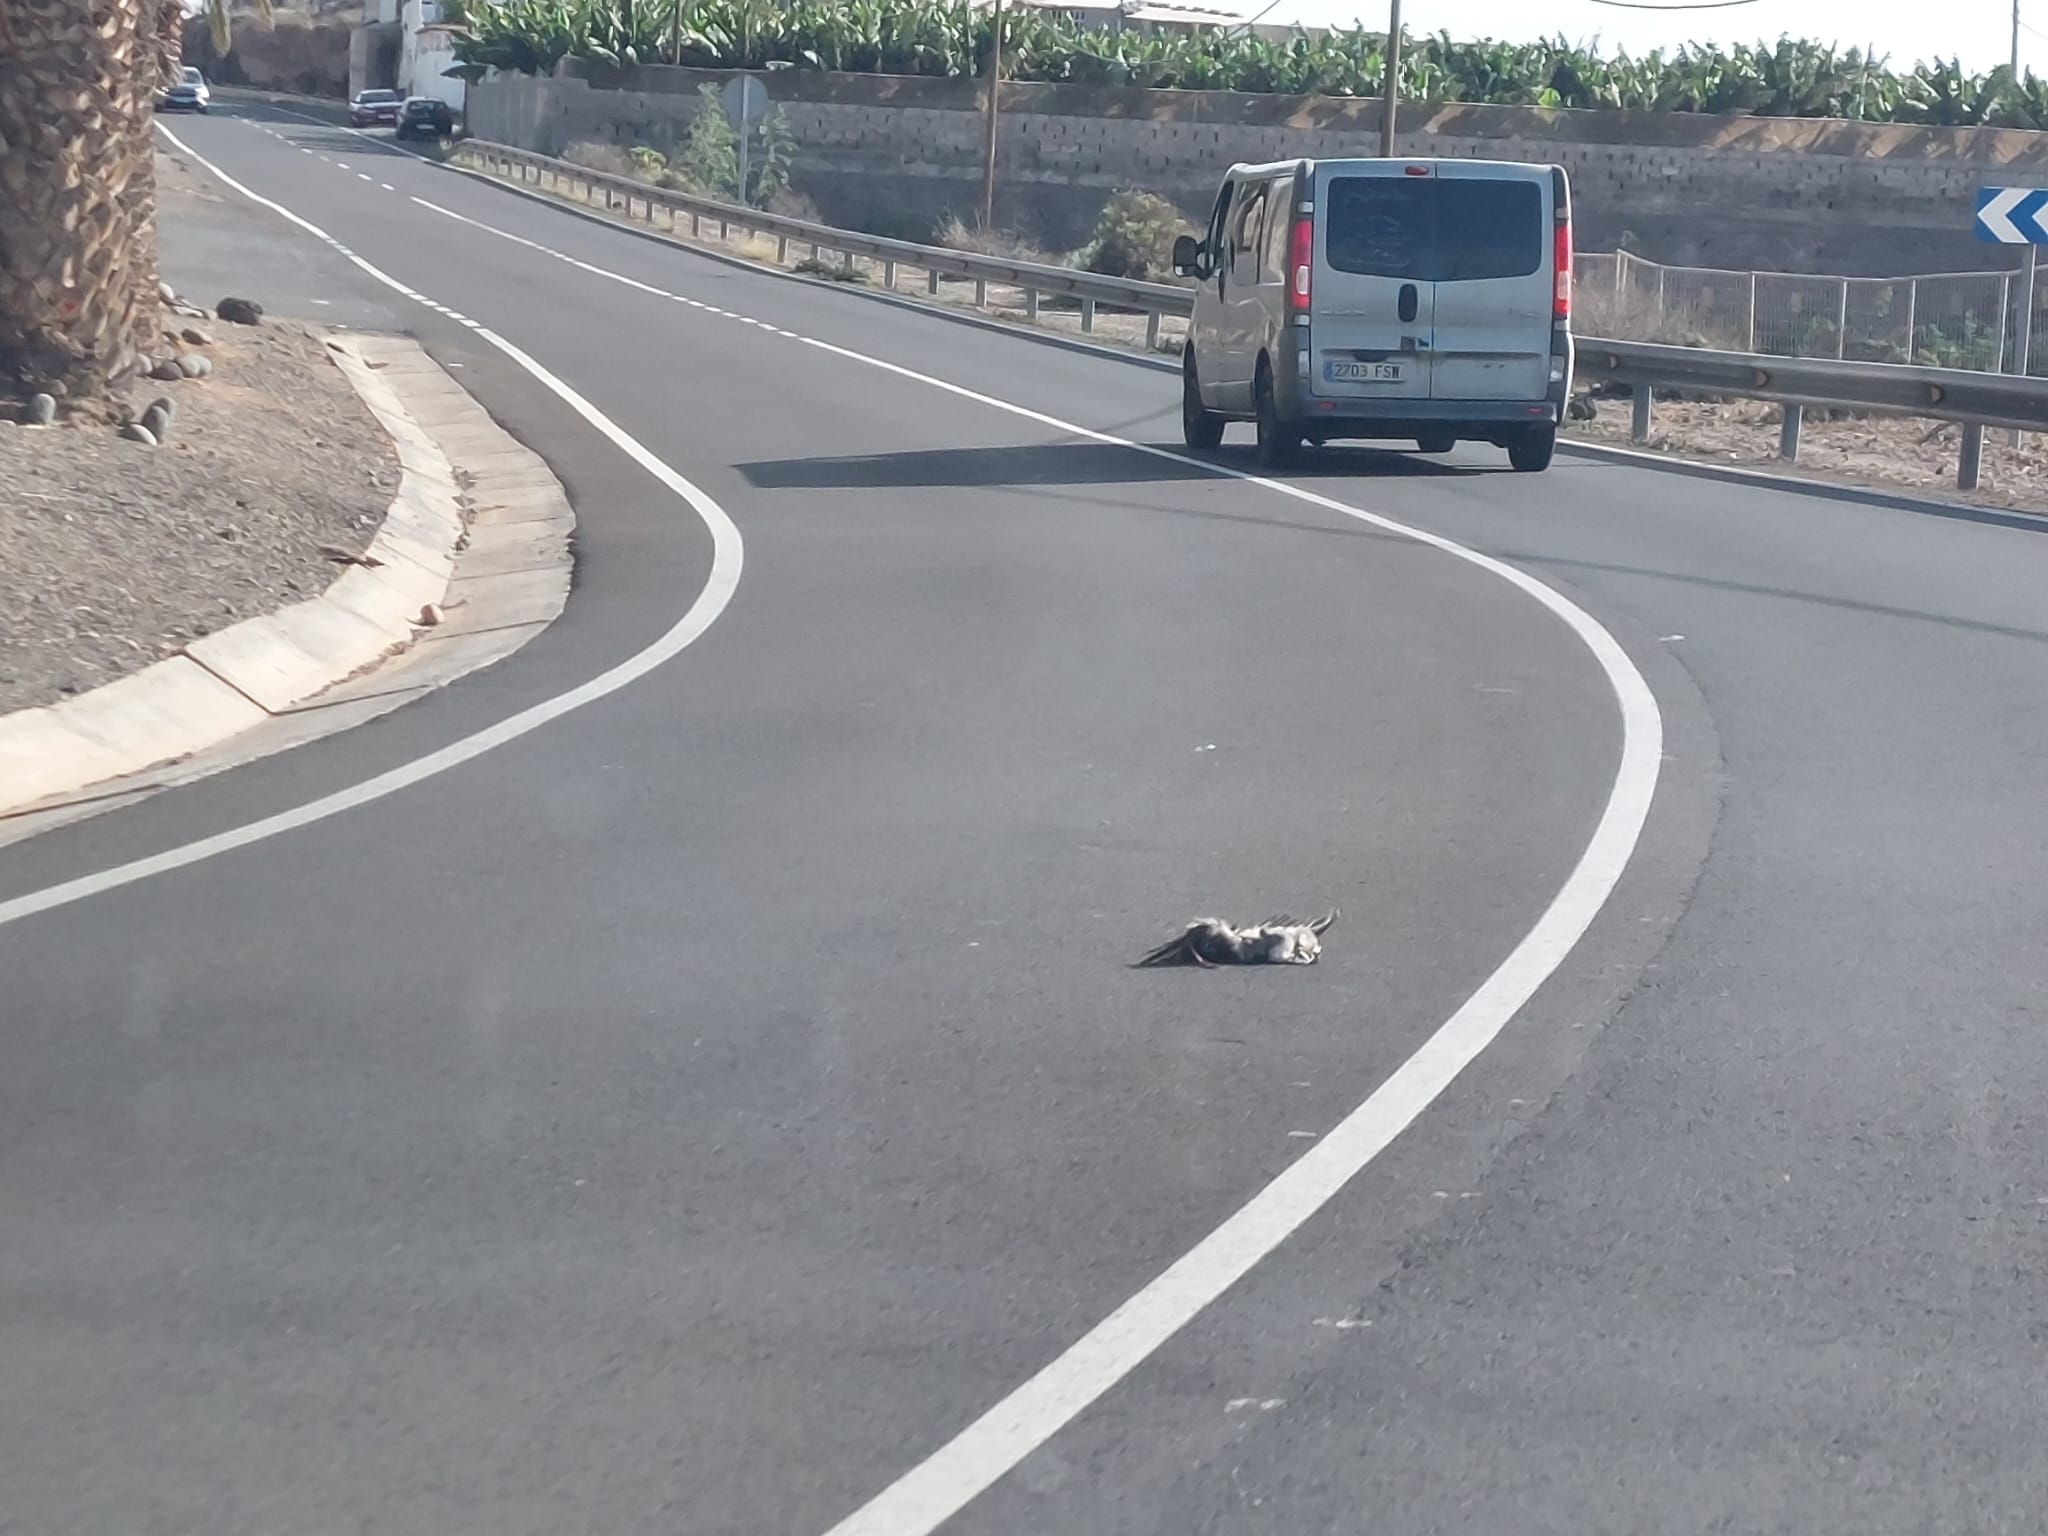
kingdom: Animalia
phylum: Chordata
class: Aves
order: Procellariiformes
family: Procellariidae
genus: Calonectris
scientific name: Calonectris diomedea
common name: Cory's shearwater
